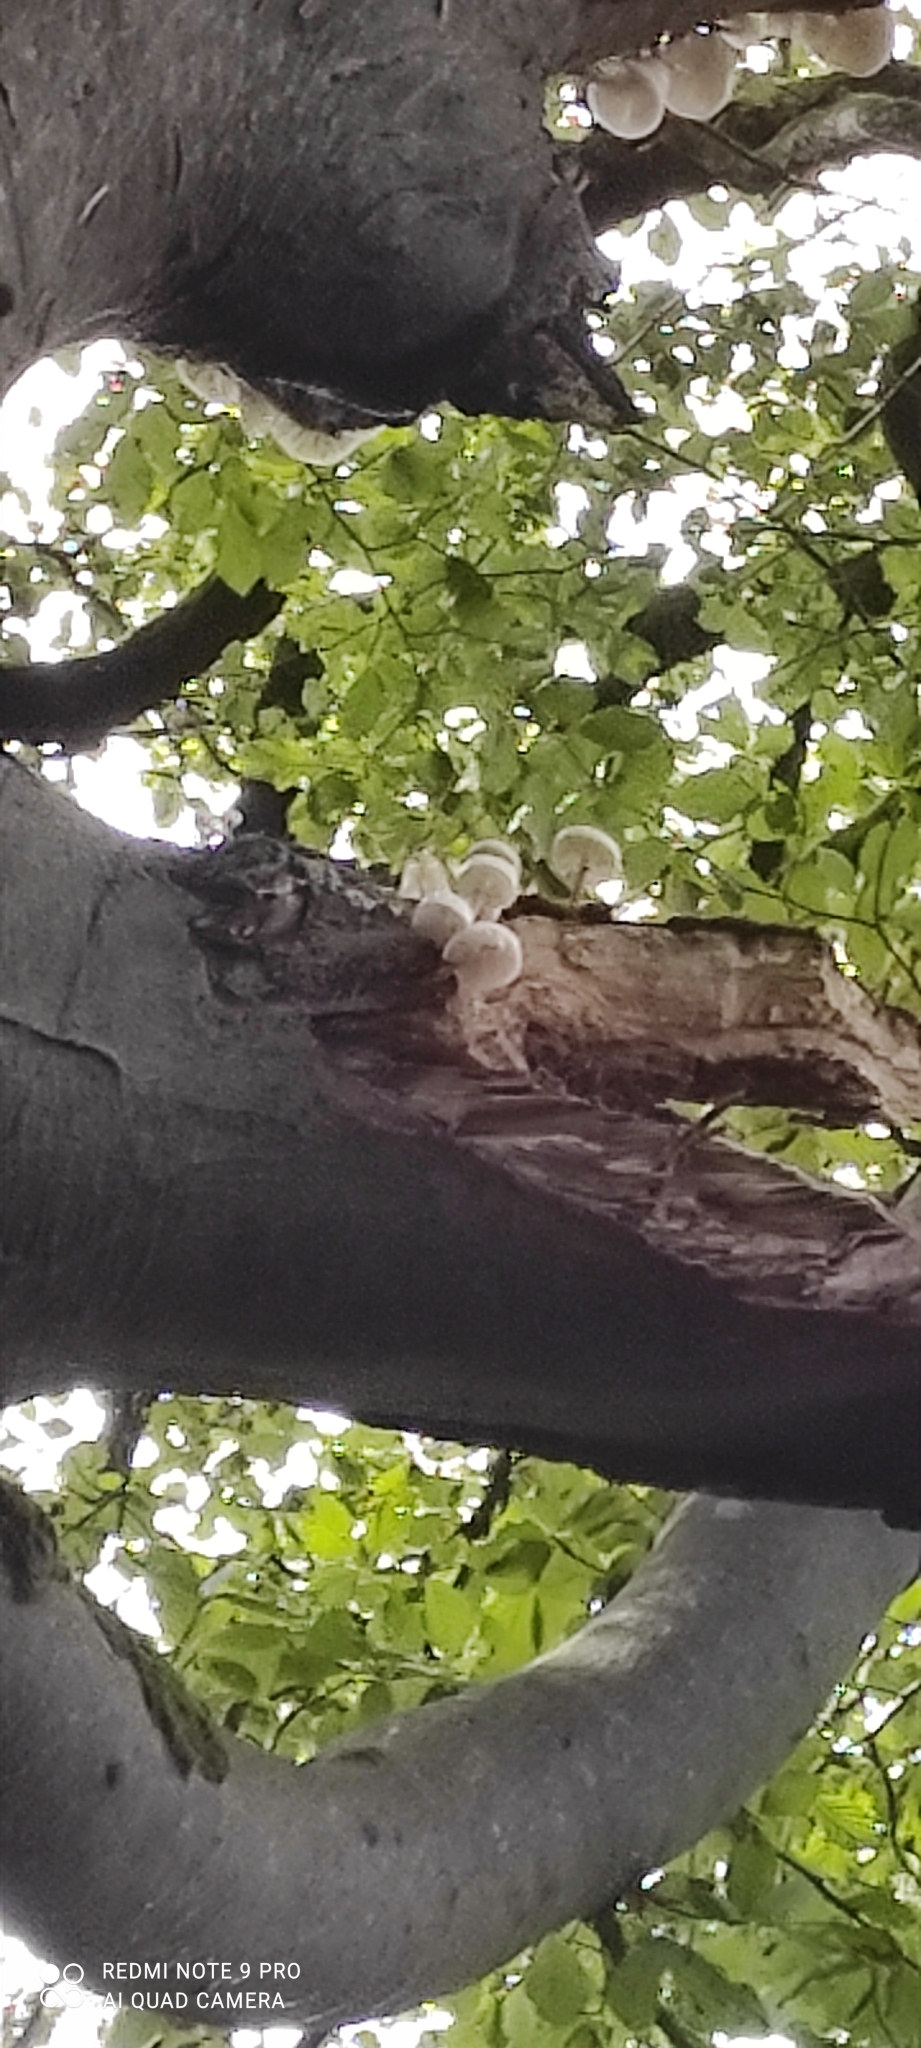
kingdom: Fungi
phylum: Basidiomycota
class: Agaricomycetes
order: Agaricales
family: Physalacriaceae
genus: Mucidula
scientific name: Mucidula mucida
